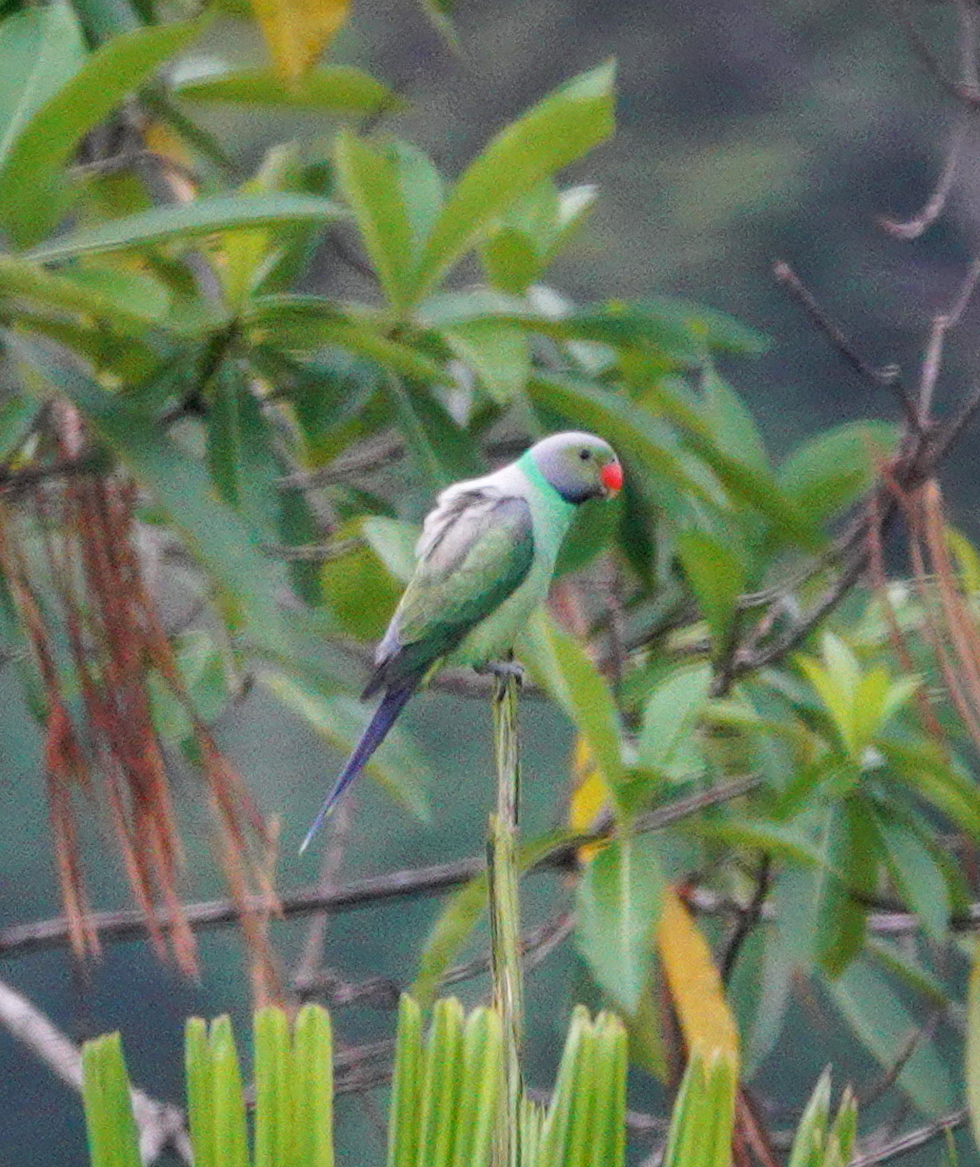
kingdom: Animalia
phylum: Chordata
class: Aves
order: Psittaciformes
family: Psittacidae
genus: Psittacula
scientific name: Psittacula calthrapae
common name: Layard's parakeet
